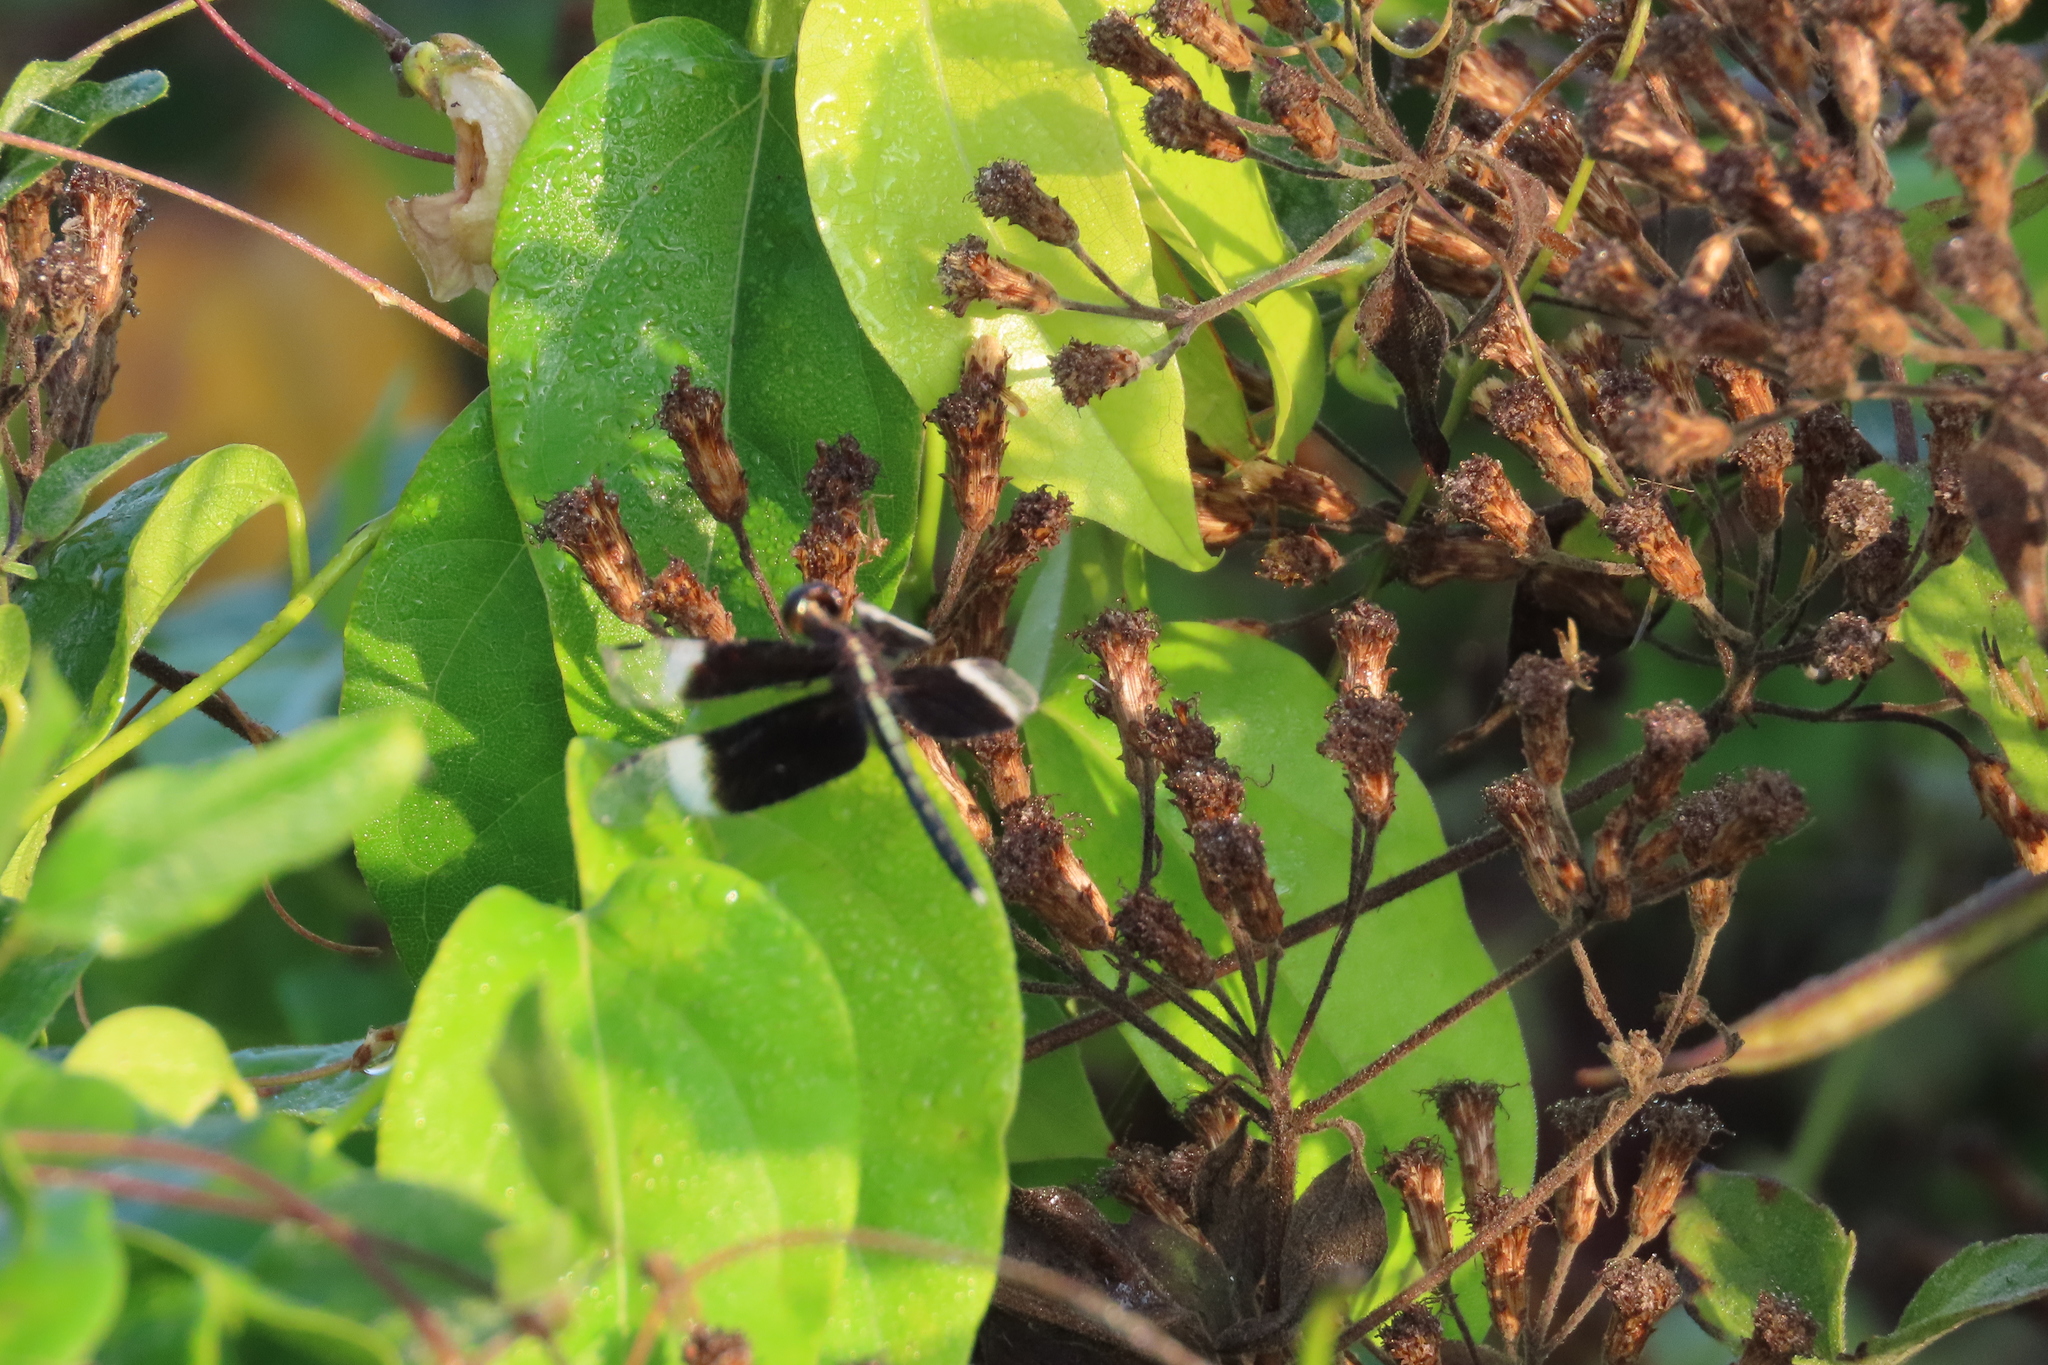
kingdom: Animalia
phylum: Arthropoda
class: Insecta
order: Odonata
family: Libellulidae
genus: Neurothemis
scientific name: Neurothemis tullia
